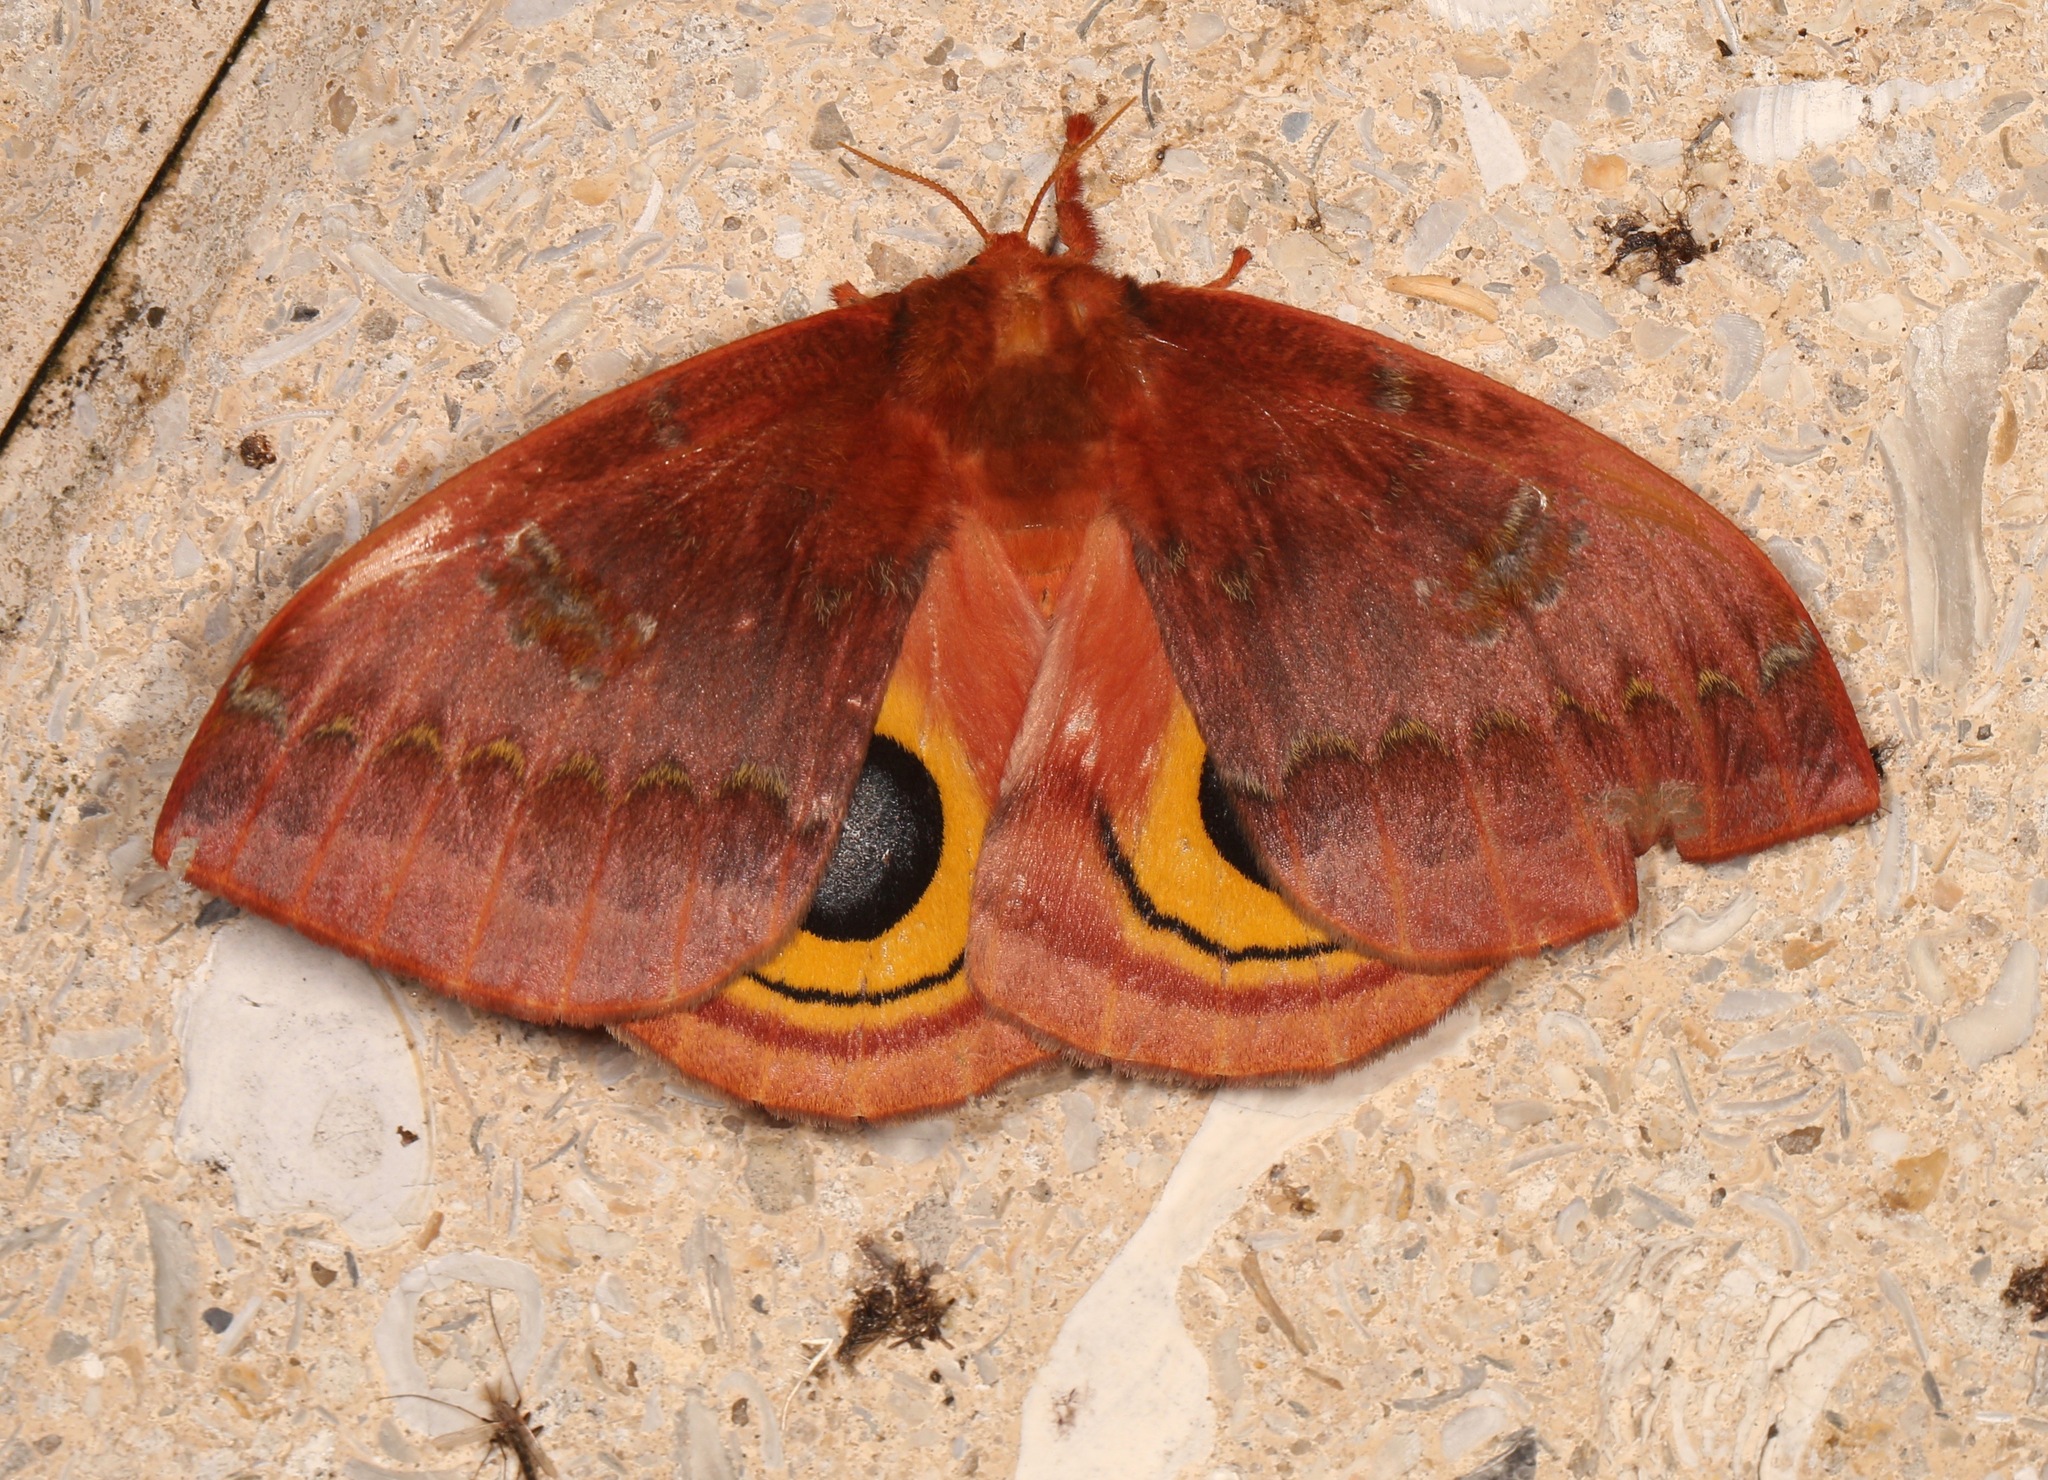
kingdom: Animalia
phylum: Arthropoda
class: Insecta
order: Lepidoptera
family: Saturniidae
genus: Automeris
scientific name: Automeris io
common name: Io moth
